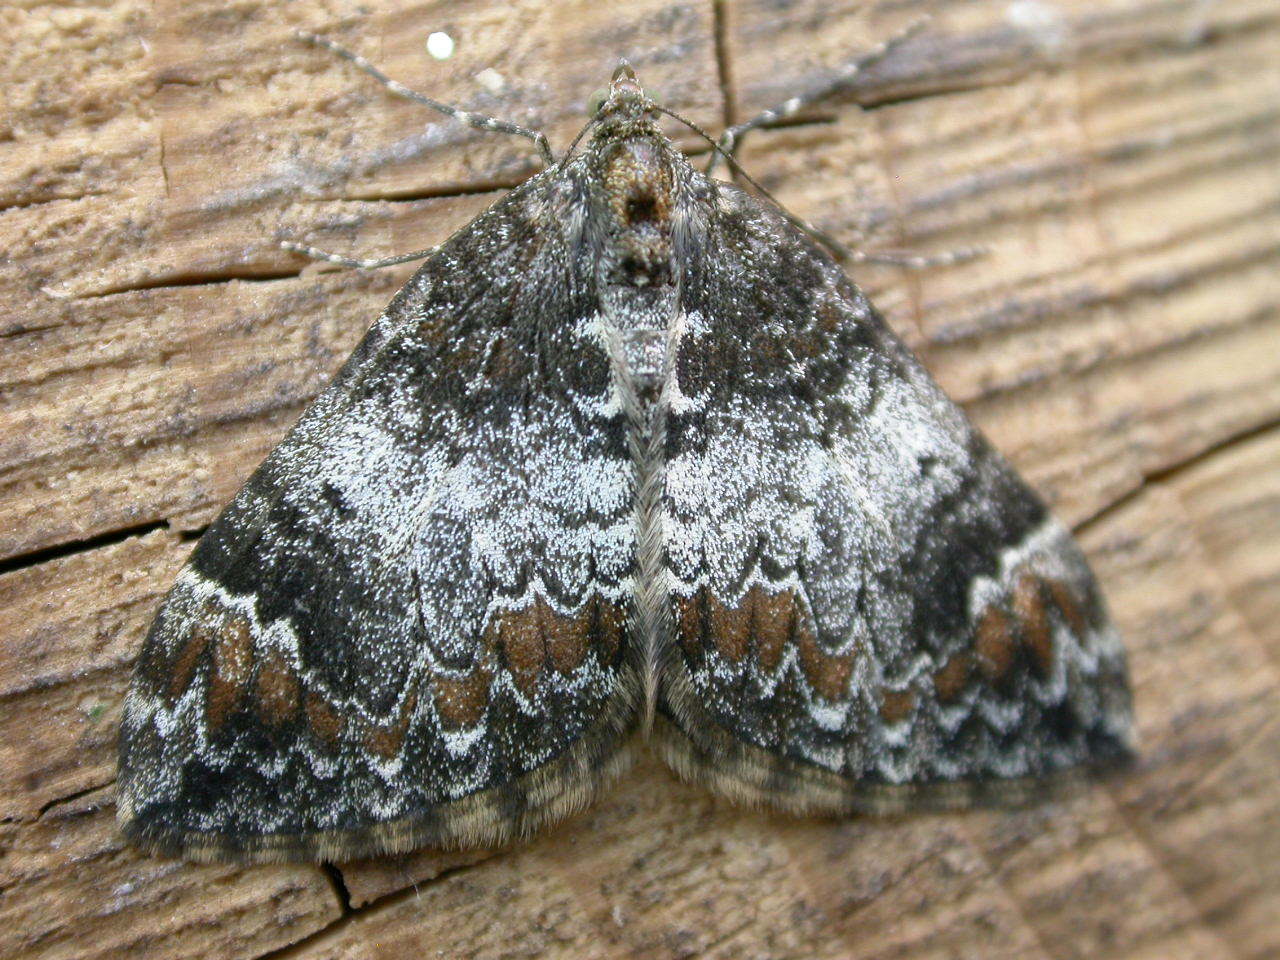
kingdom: Animalia
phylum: Arthropoda
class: Insecta
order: Lepidoptera
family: Geometridae
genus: Dysstroma
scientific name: Dysstroma truncata
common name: Common marbled carpet
